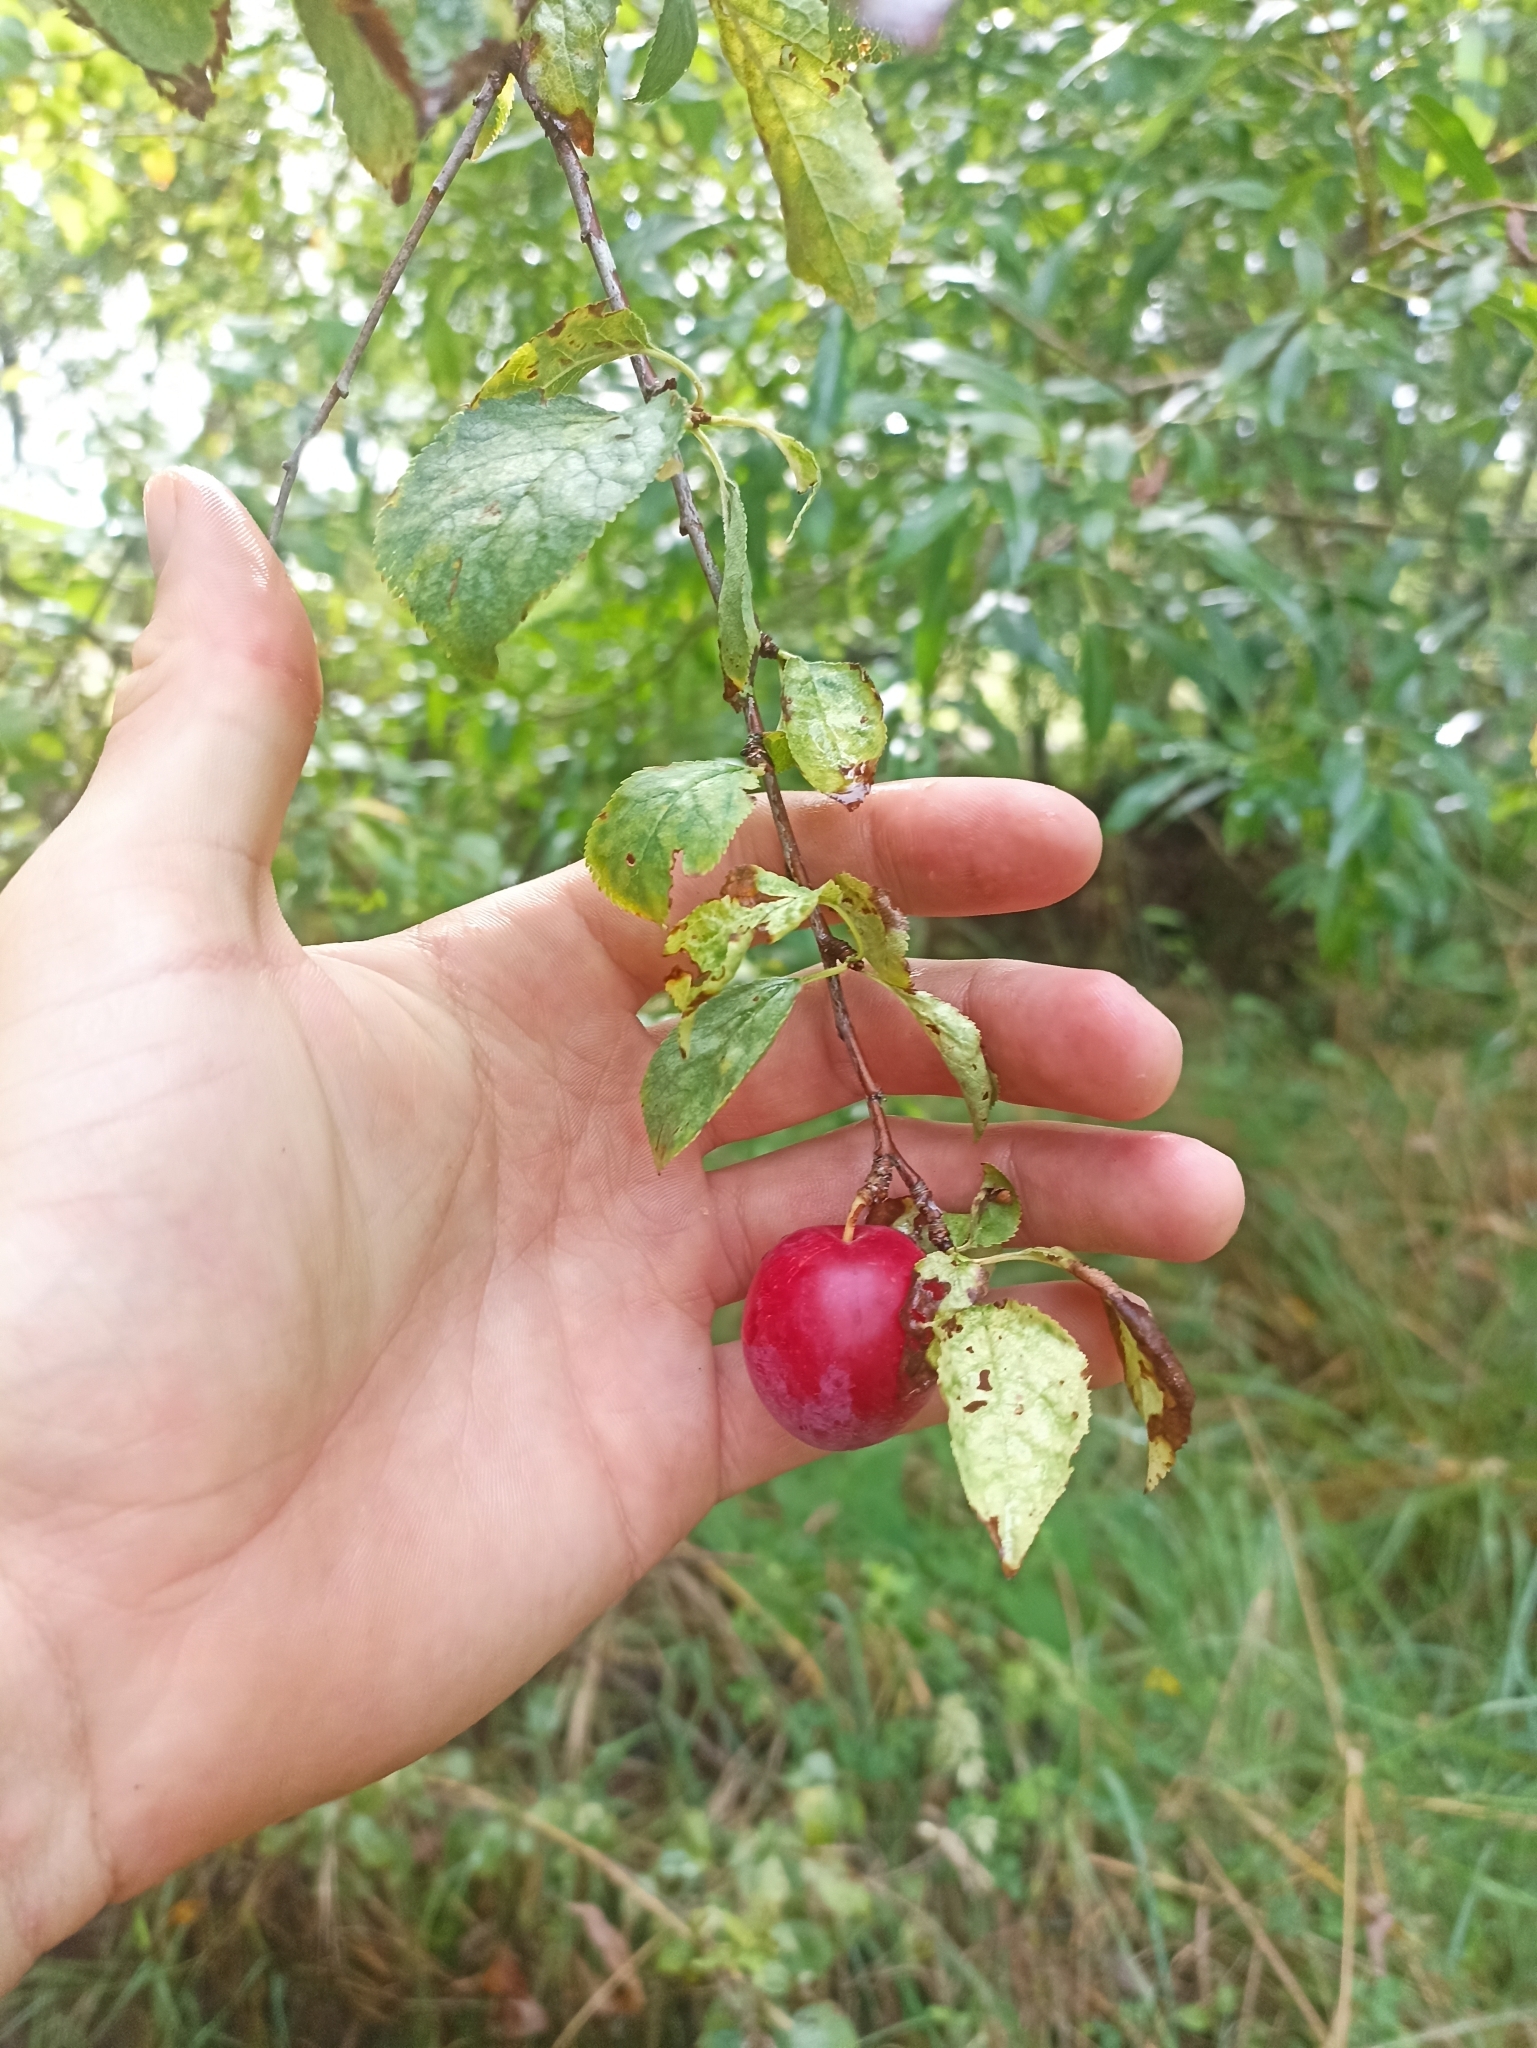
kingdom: Plantae
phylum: Tracheophyta
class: Magnoliopsida
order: Rosales
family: Rosaceae
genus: Prunus
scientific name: Prunus cerasifera
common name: Cherry plum
